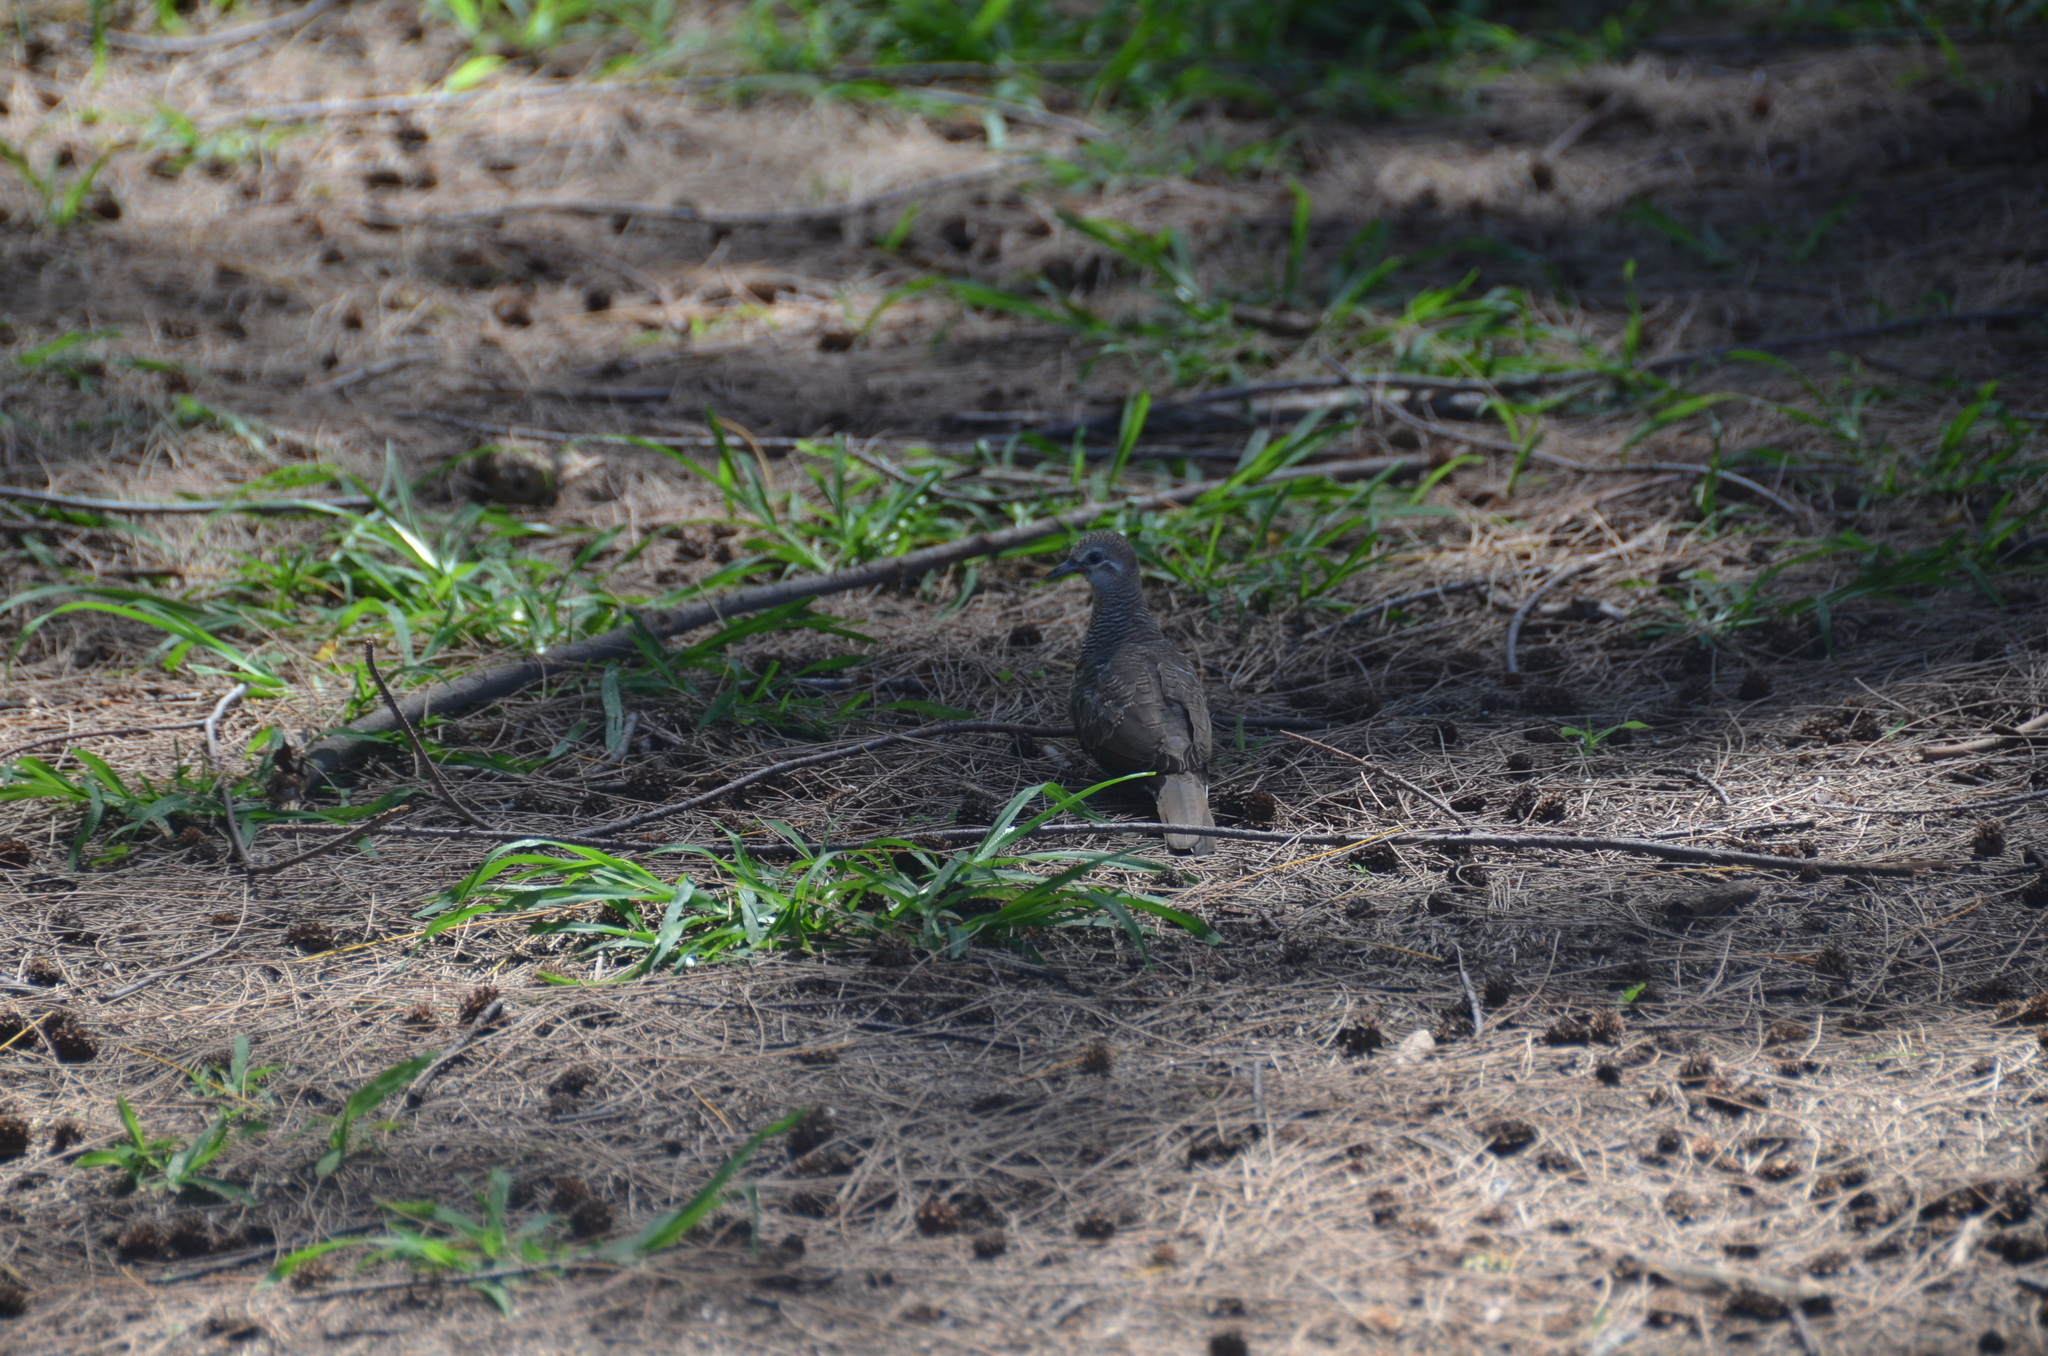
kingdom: Animalia
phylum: Chordata
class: Aves
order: Columbiformes
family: Columbidae
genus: Geopelia
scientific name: Geopelia striata
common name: Zebra dove
